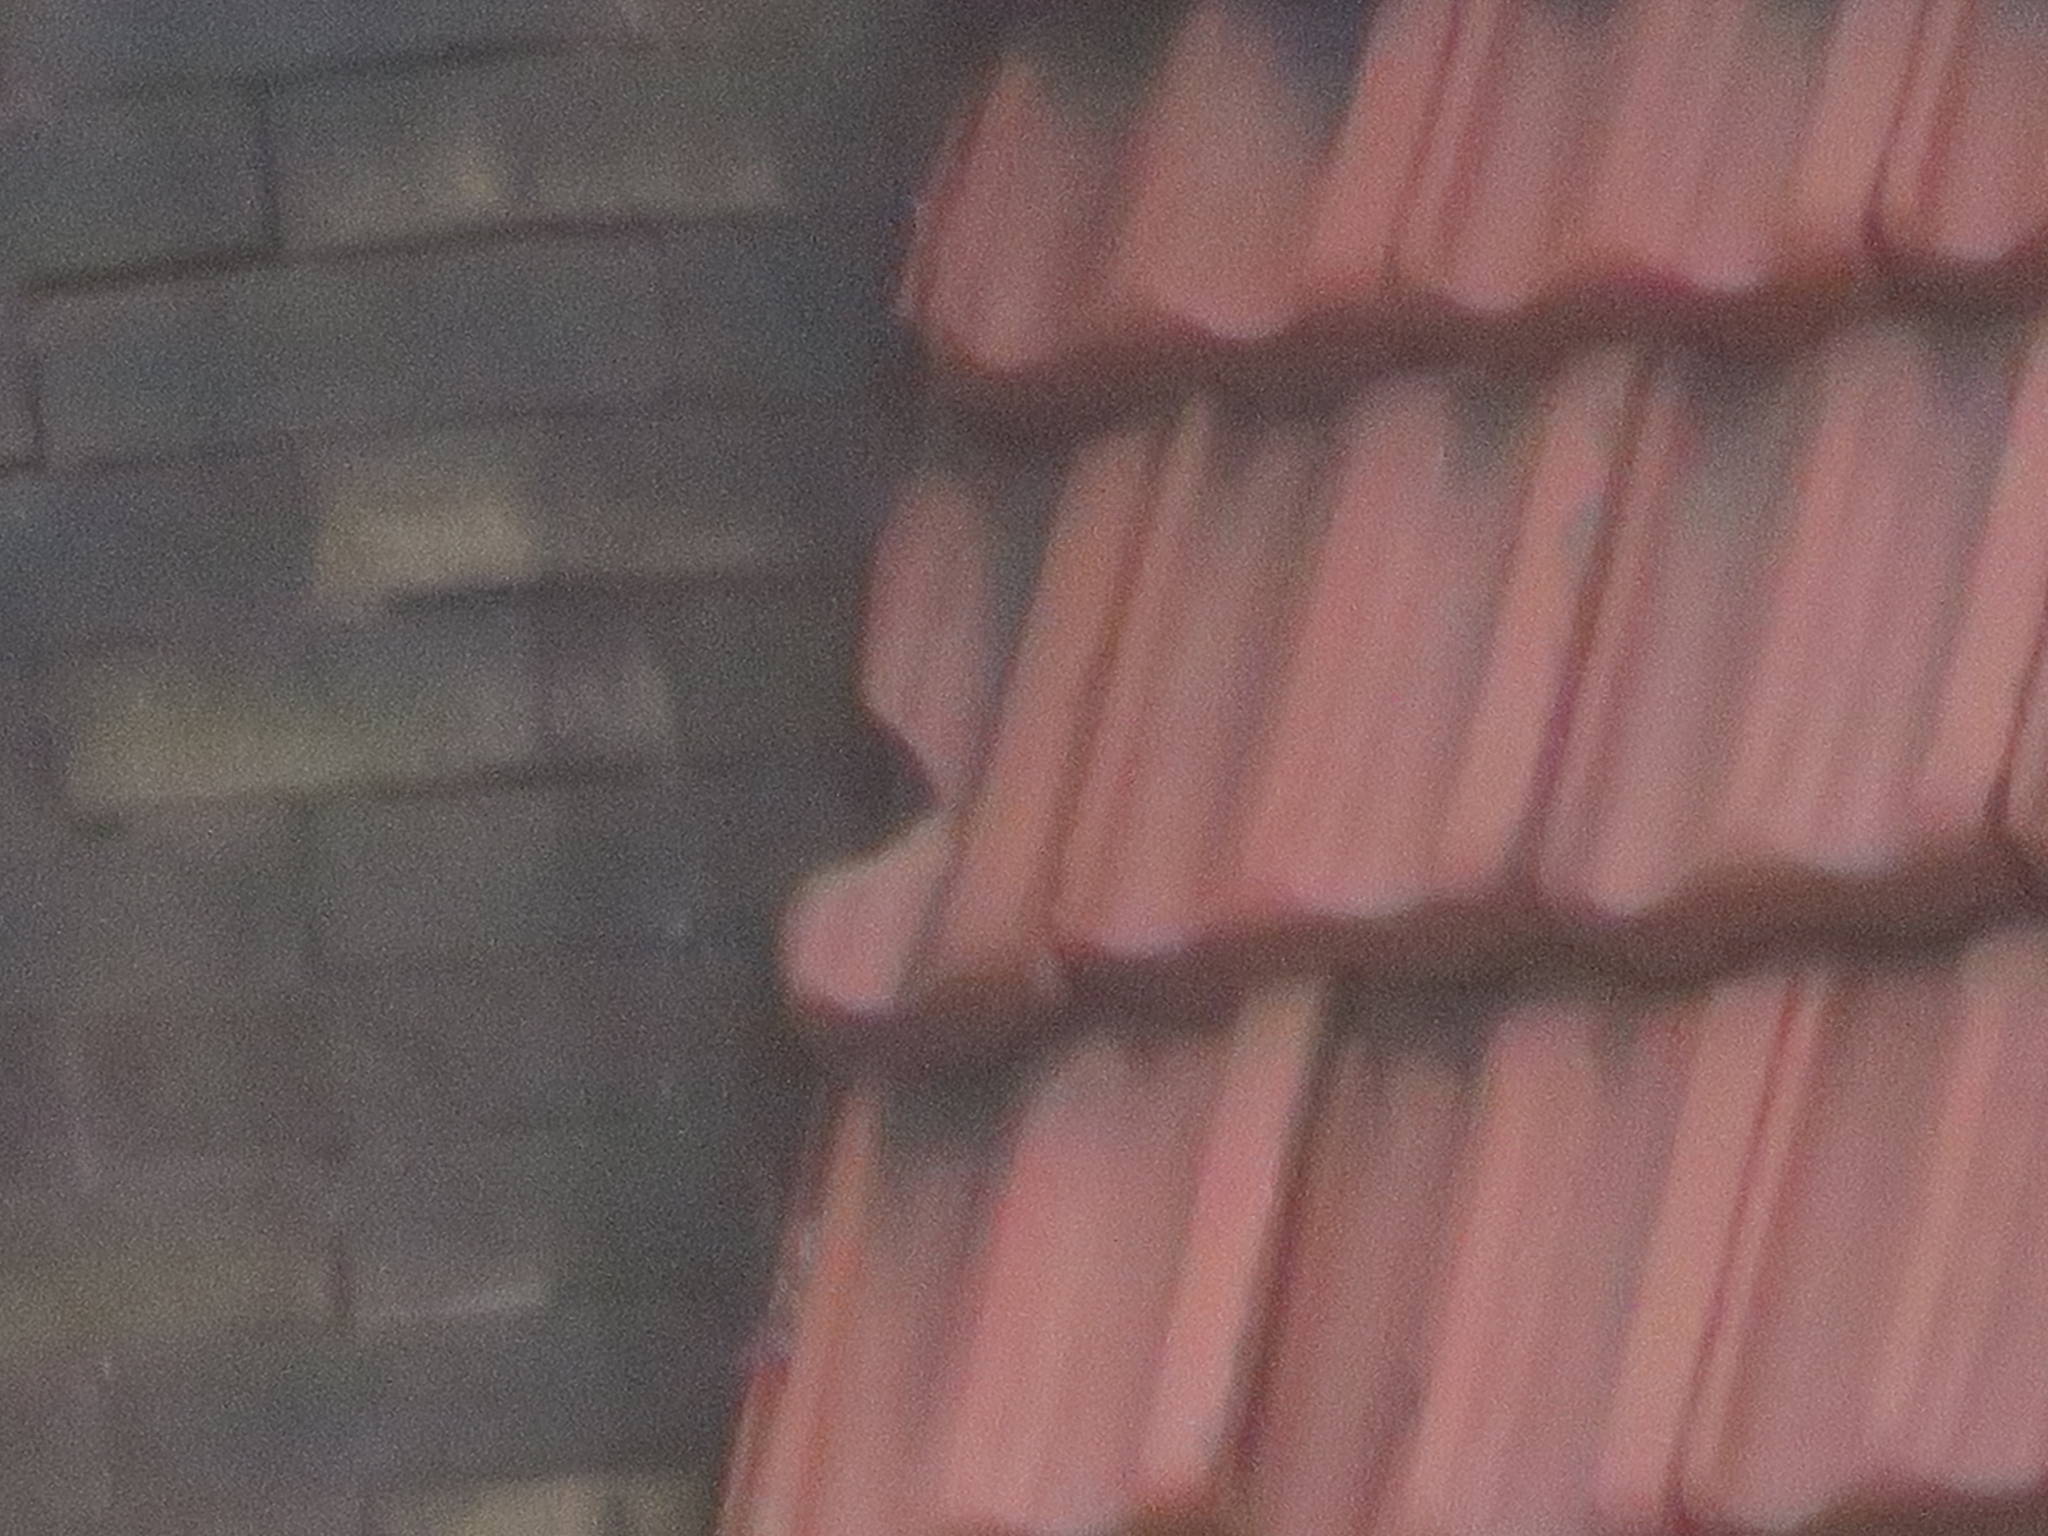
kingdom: Animalia
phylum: Chordata
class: Aves
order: Passeriformes
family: Sturnidae
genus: Sturnus
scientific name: Sturnus vulgaris
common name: Common starling
